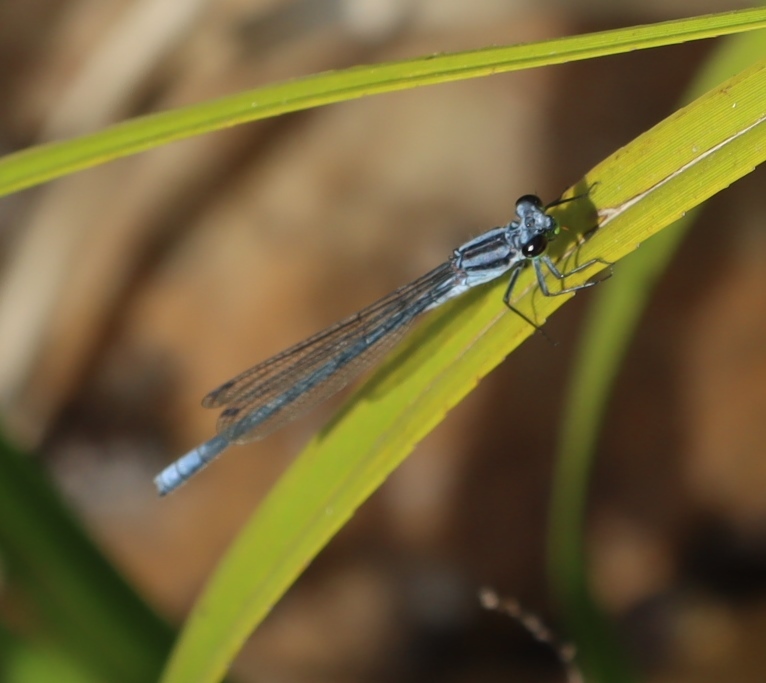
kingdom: Animalia
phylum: Arthropoda
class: Insecta
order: Odonata
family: Coenagrionidae
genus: Pseudagrion
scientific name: Pseudagrion furcigerum
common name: Palmiet sprite
